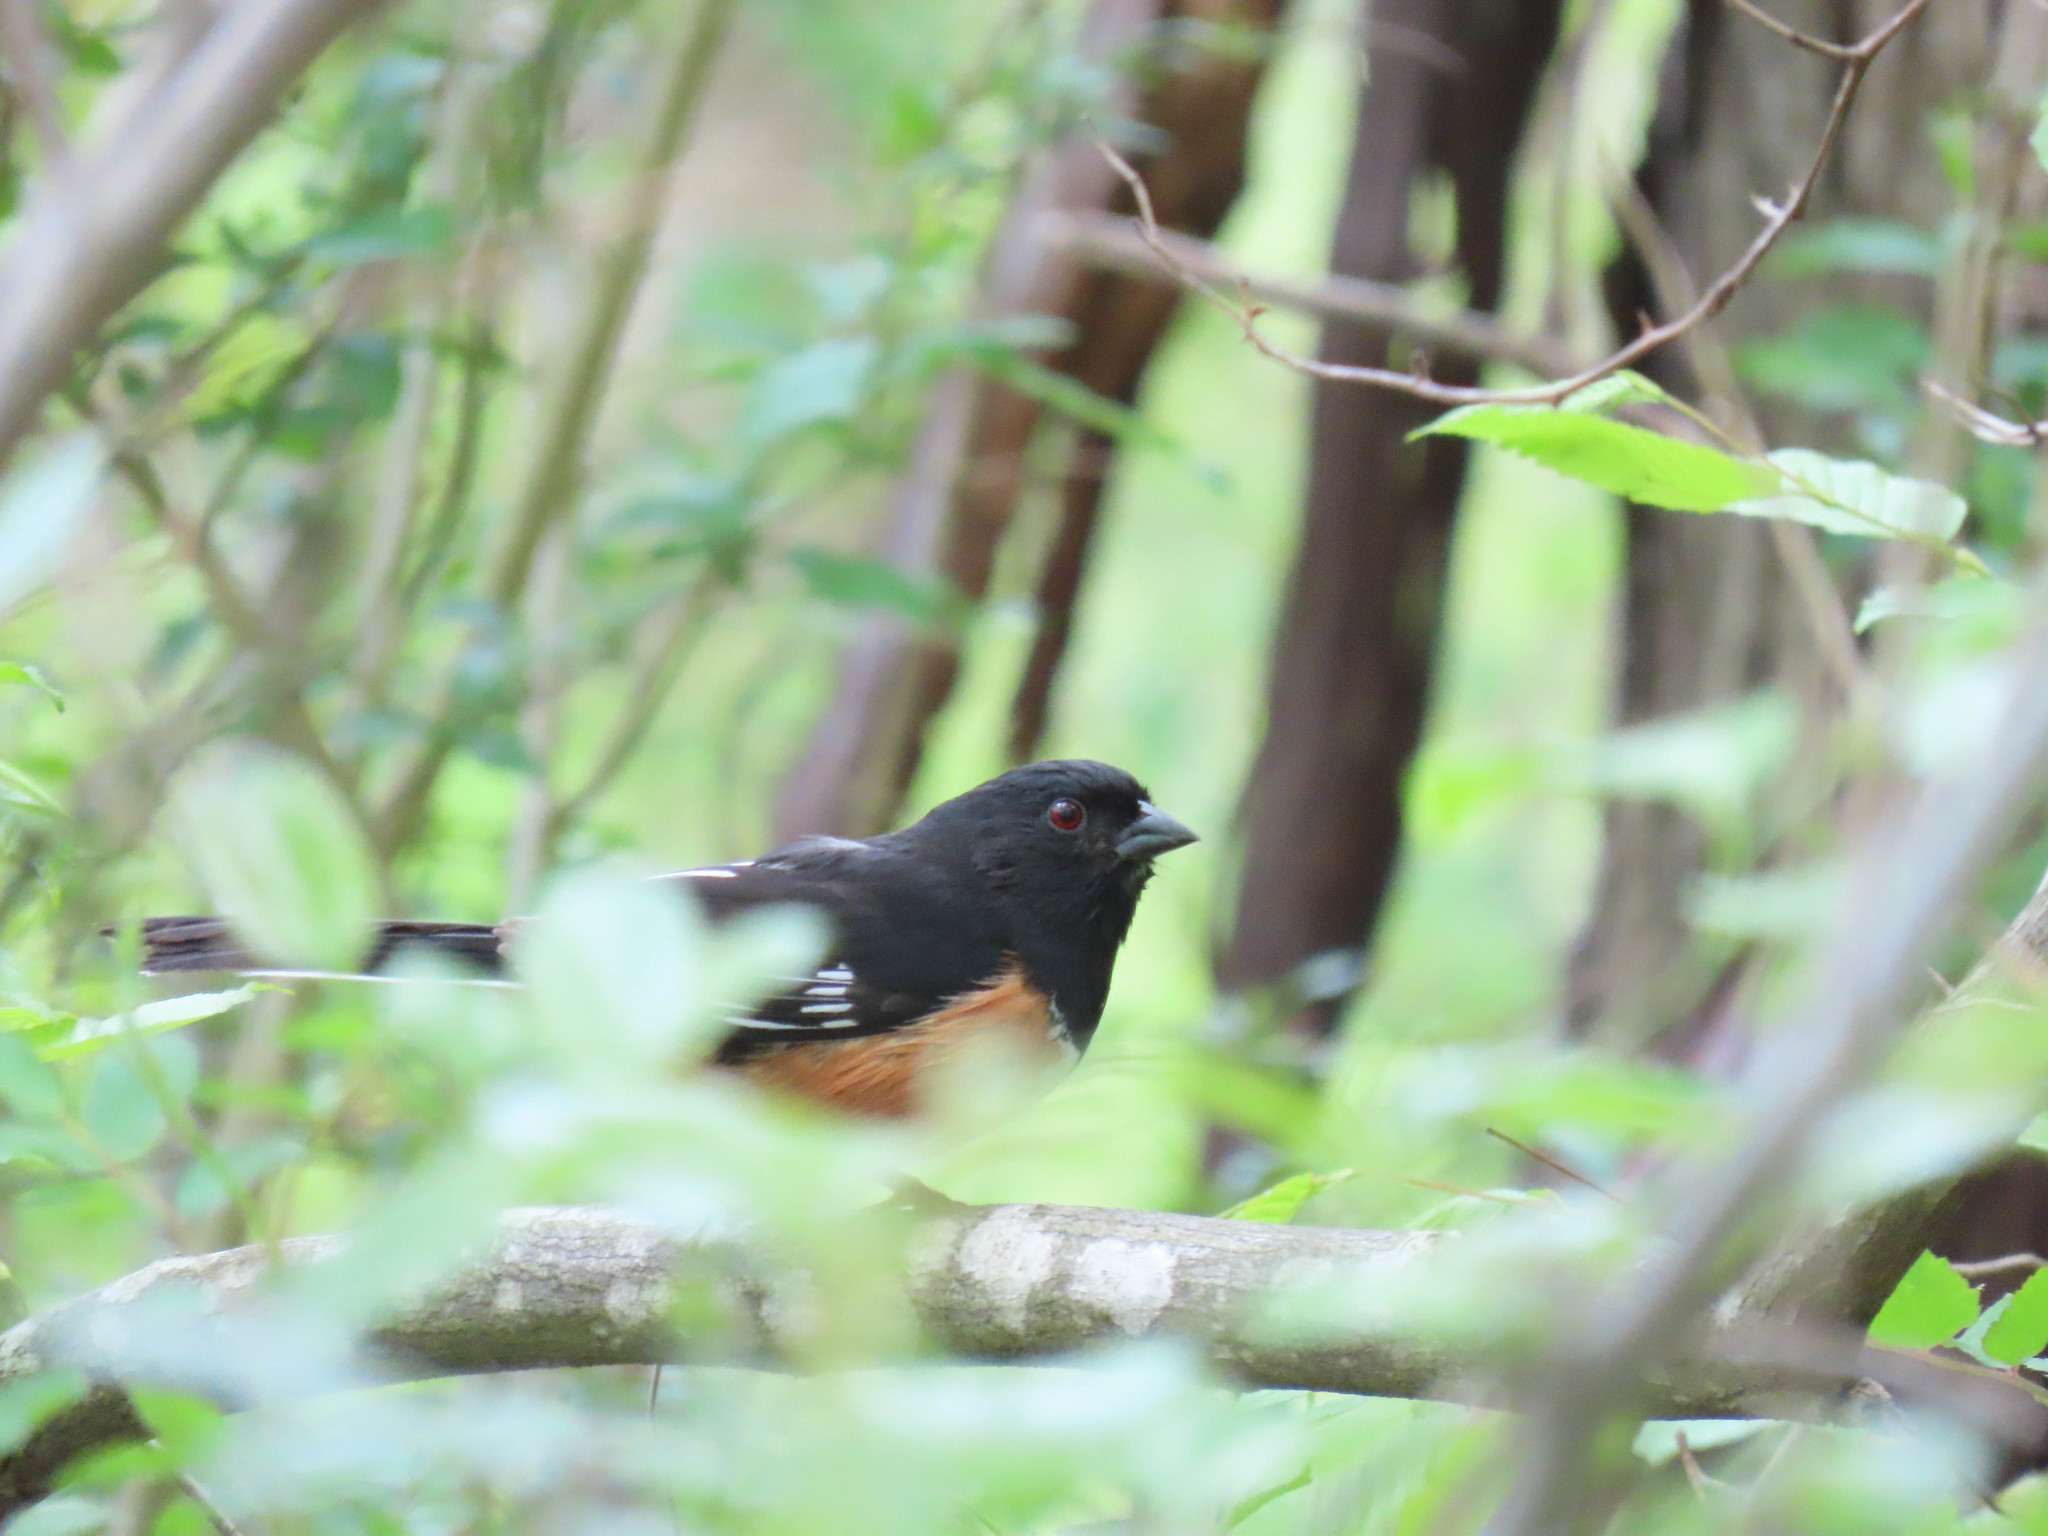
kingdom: Animalia
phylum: Chordata
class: Aves
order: Passeriformes
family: Passerellidae
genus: Pipilo
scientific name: Pipilo erythrophthalmus
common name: Eastern towhee
